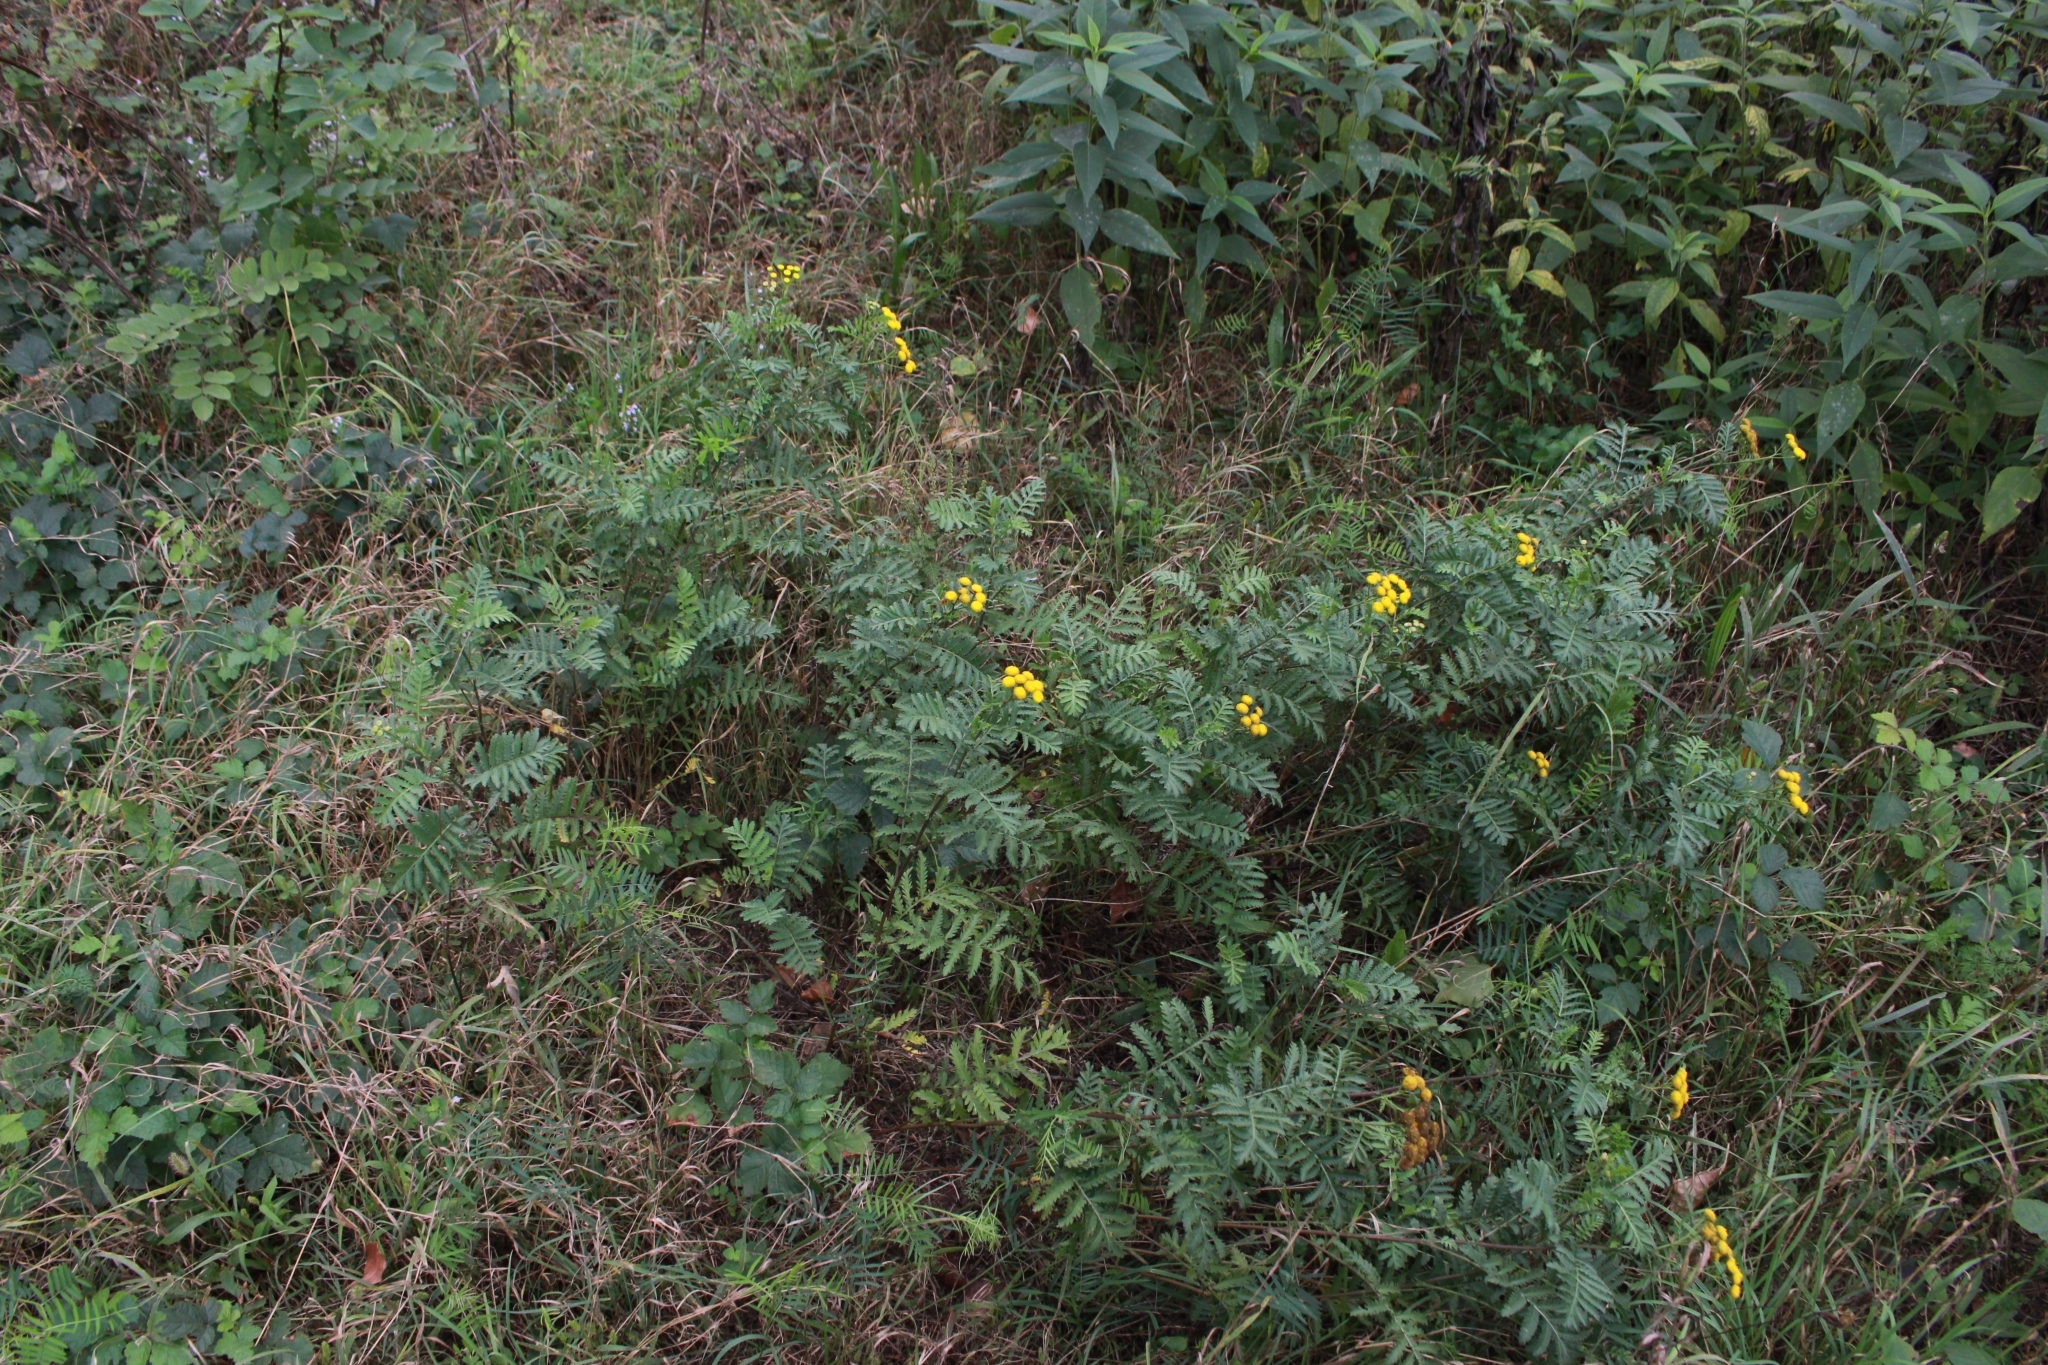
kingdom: Plantae
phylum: Tracheophyta
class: Magnoliopsida
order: Asterales
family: Asteraceae
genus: Tanacetum
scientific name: Tanacetum vulgare
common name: Common tansy
